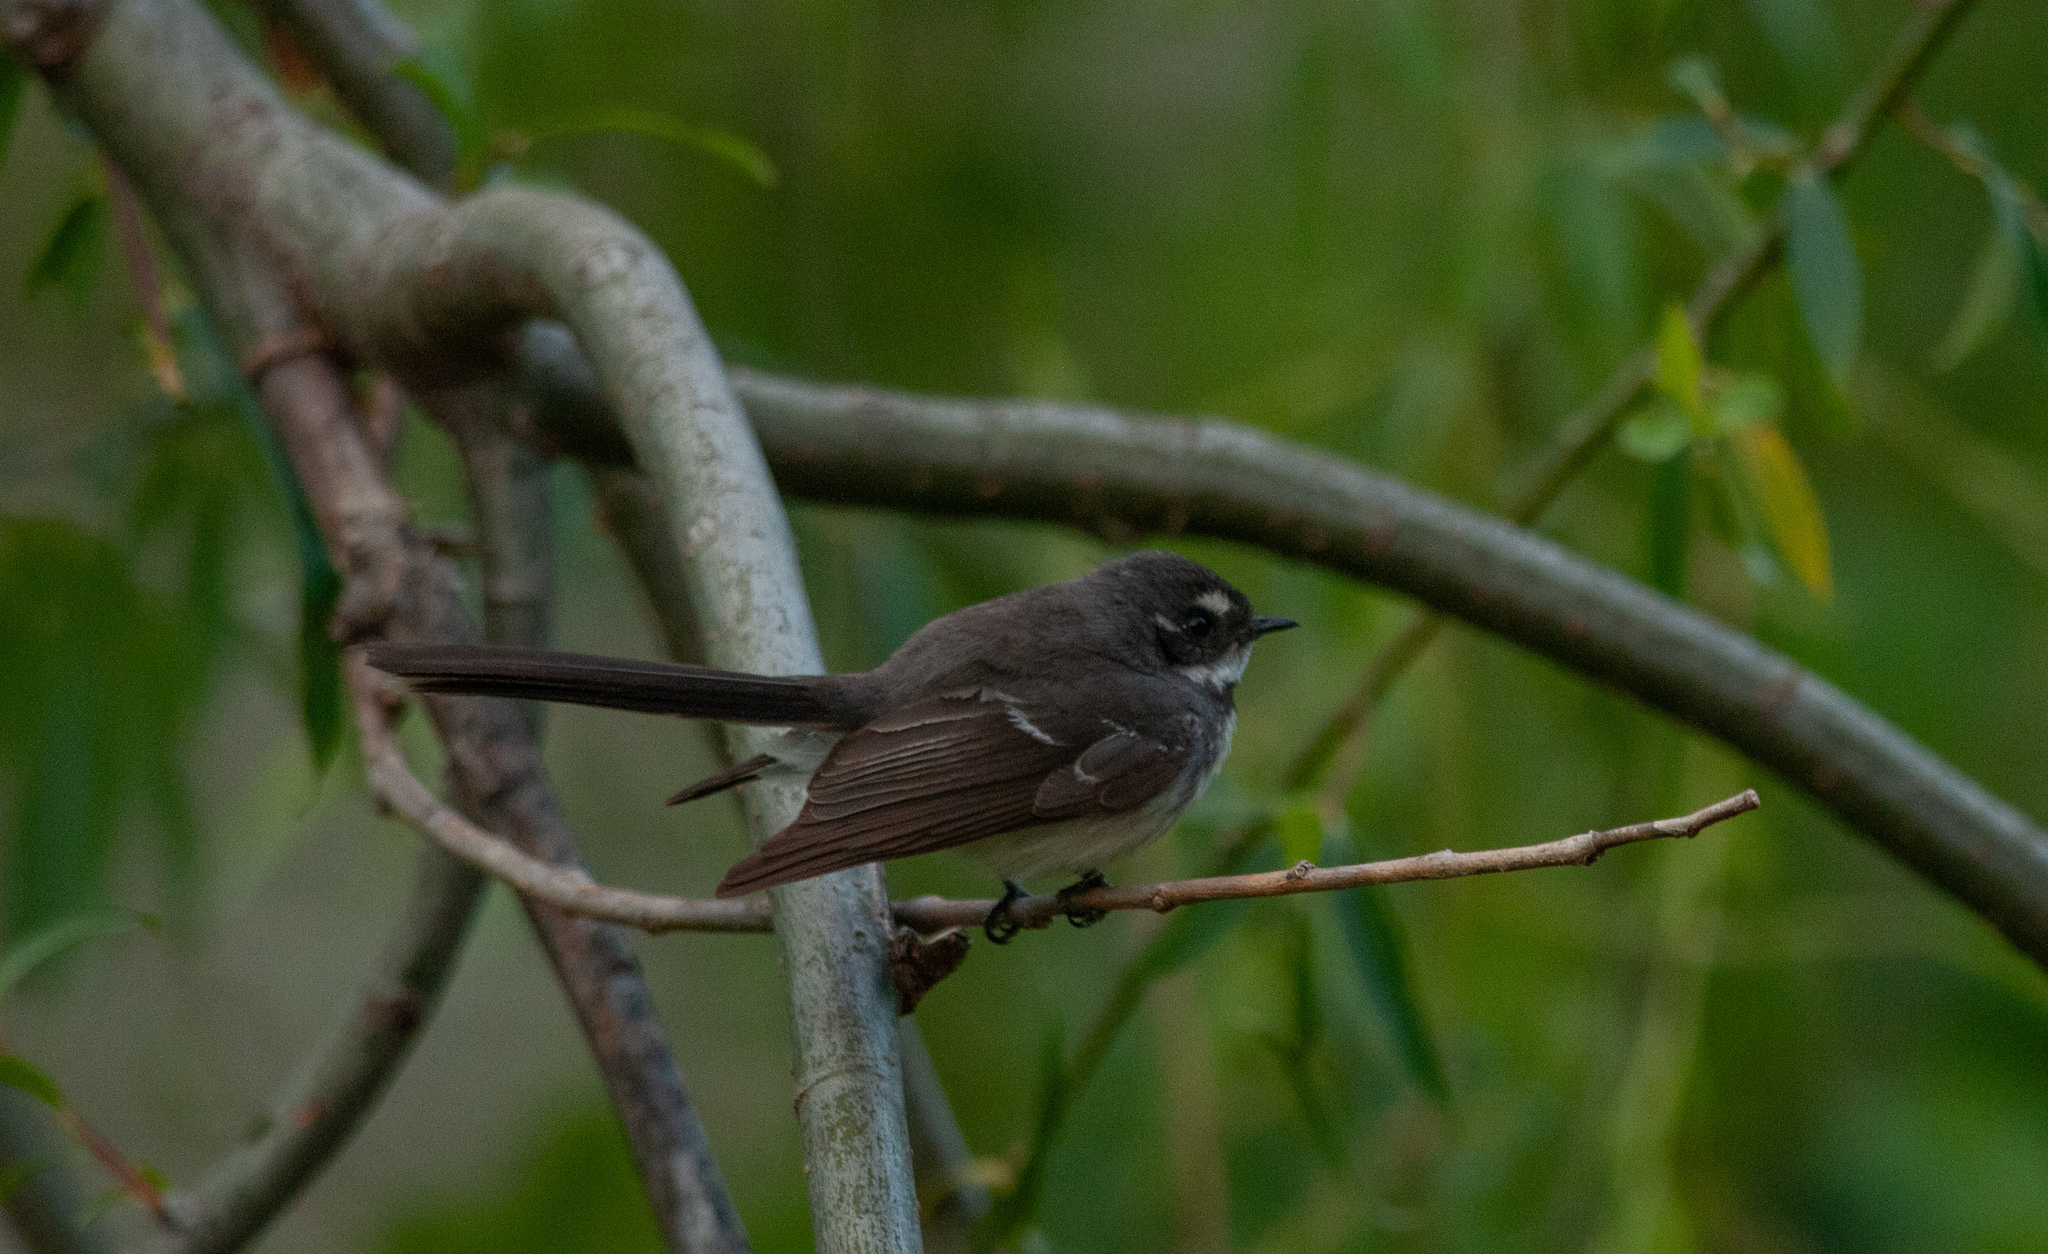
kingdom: Animalia
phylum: Chordata
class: Aves
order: Passeriformes
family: Rhipiduridae
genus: Rhipidura
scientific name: Rhipidura albiscapa
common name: Grey fantail
